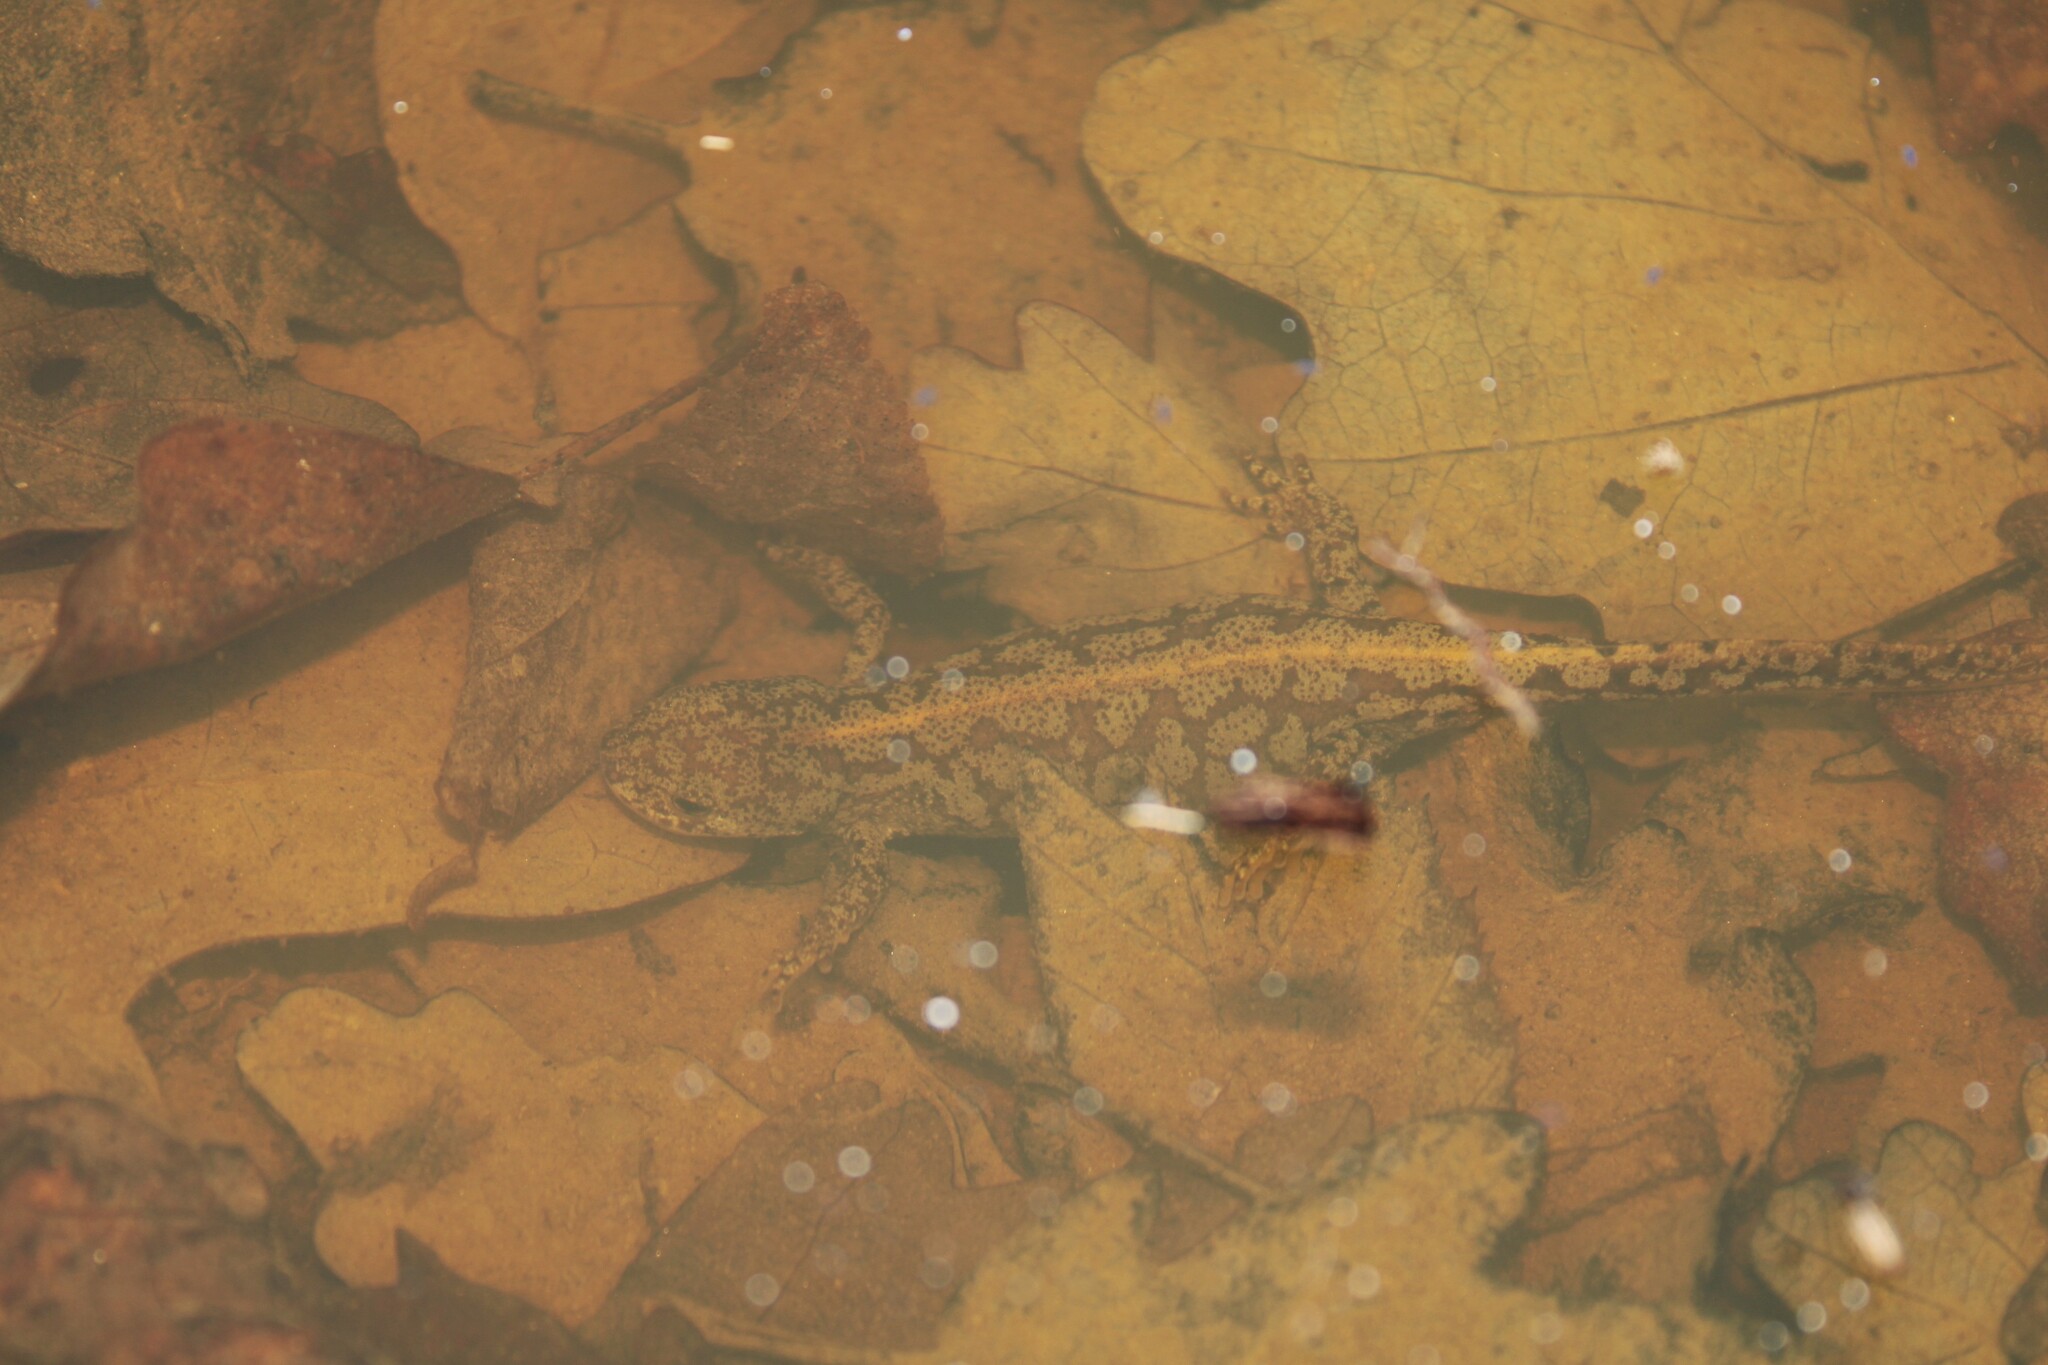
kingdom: Animalia
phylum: Chordata
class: Amphibia
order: Caudata
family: Salamandridae
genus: Ichthyosaura
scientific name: Ichthyosaura alpestris
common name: Alpine newt
